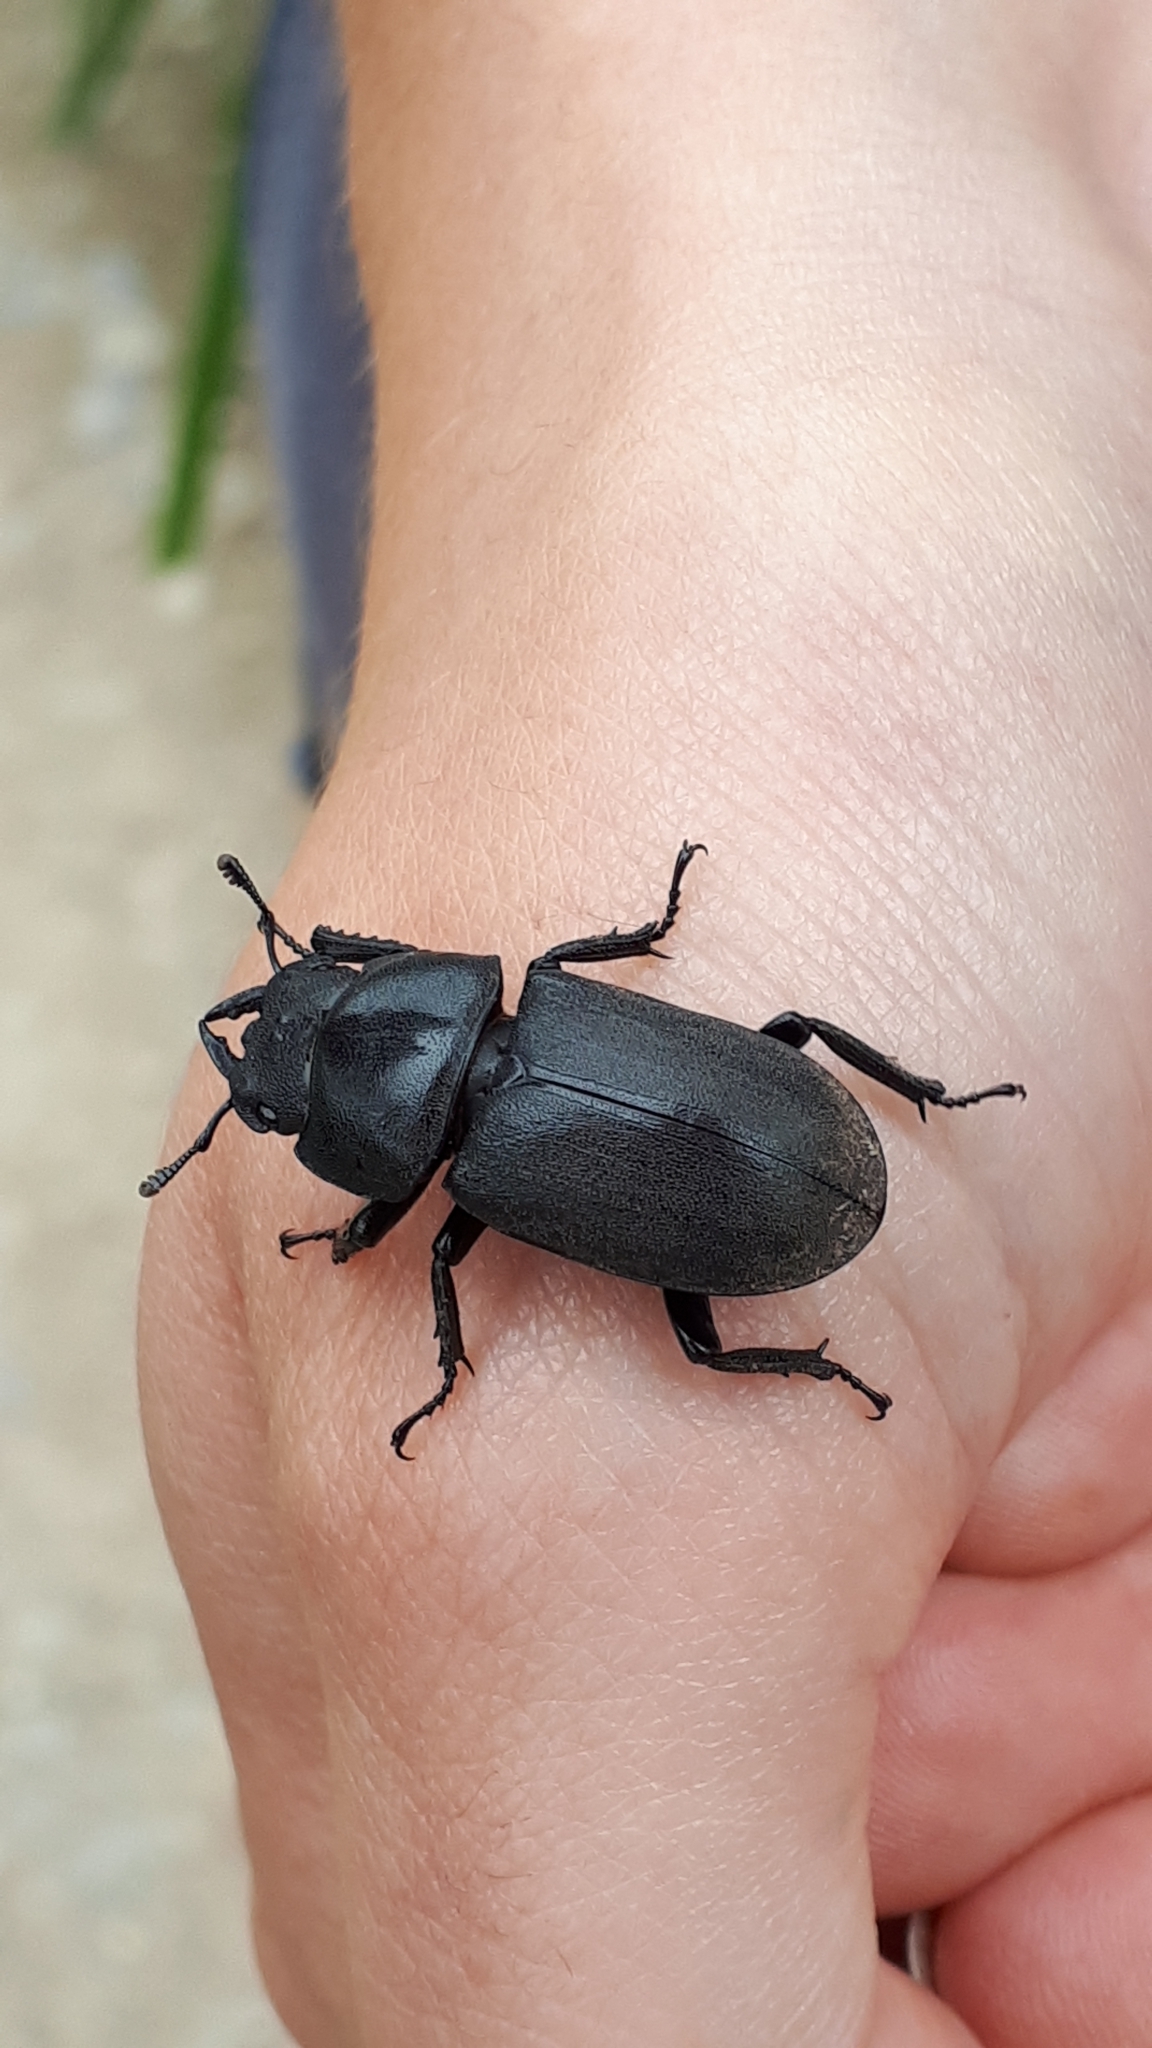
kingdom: Animalia
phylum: Arthropoda
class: Insecta
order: Coleoptera
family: Lucanidae
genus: Dorcus
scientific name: Dorcus parallelipipedus
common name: Lesser stag beetle
